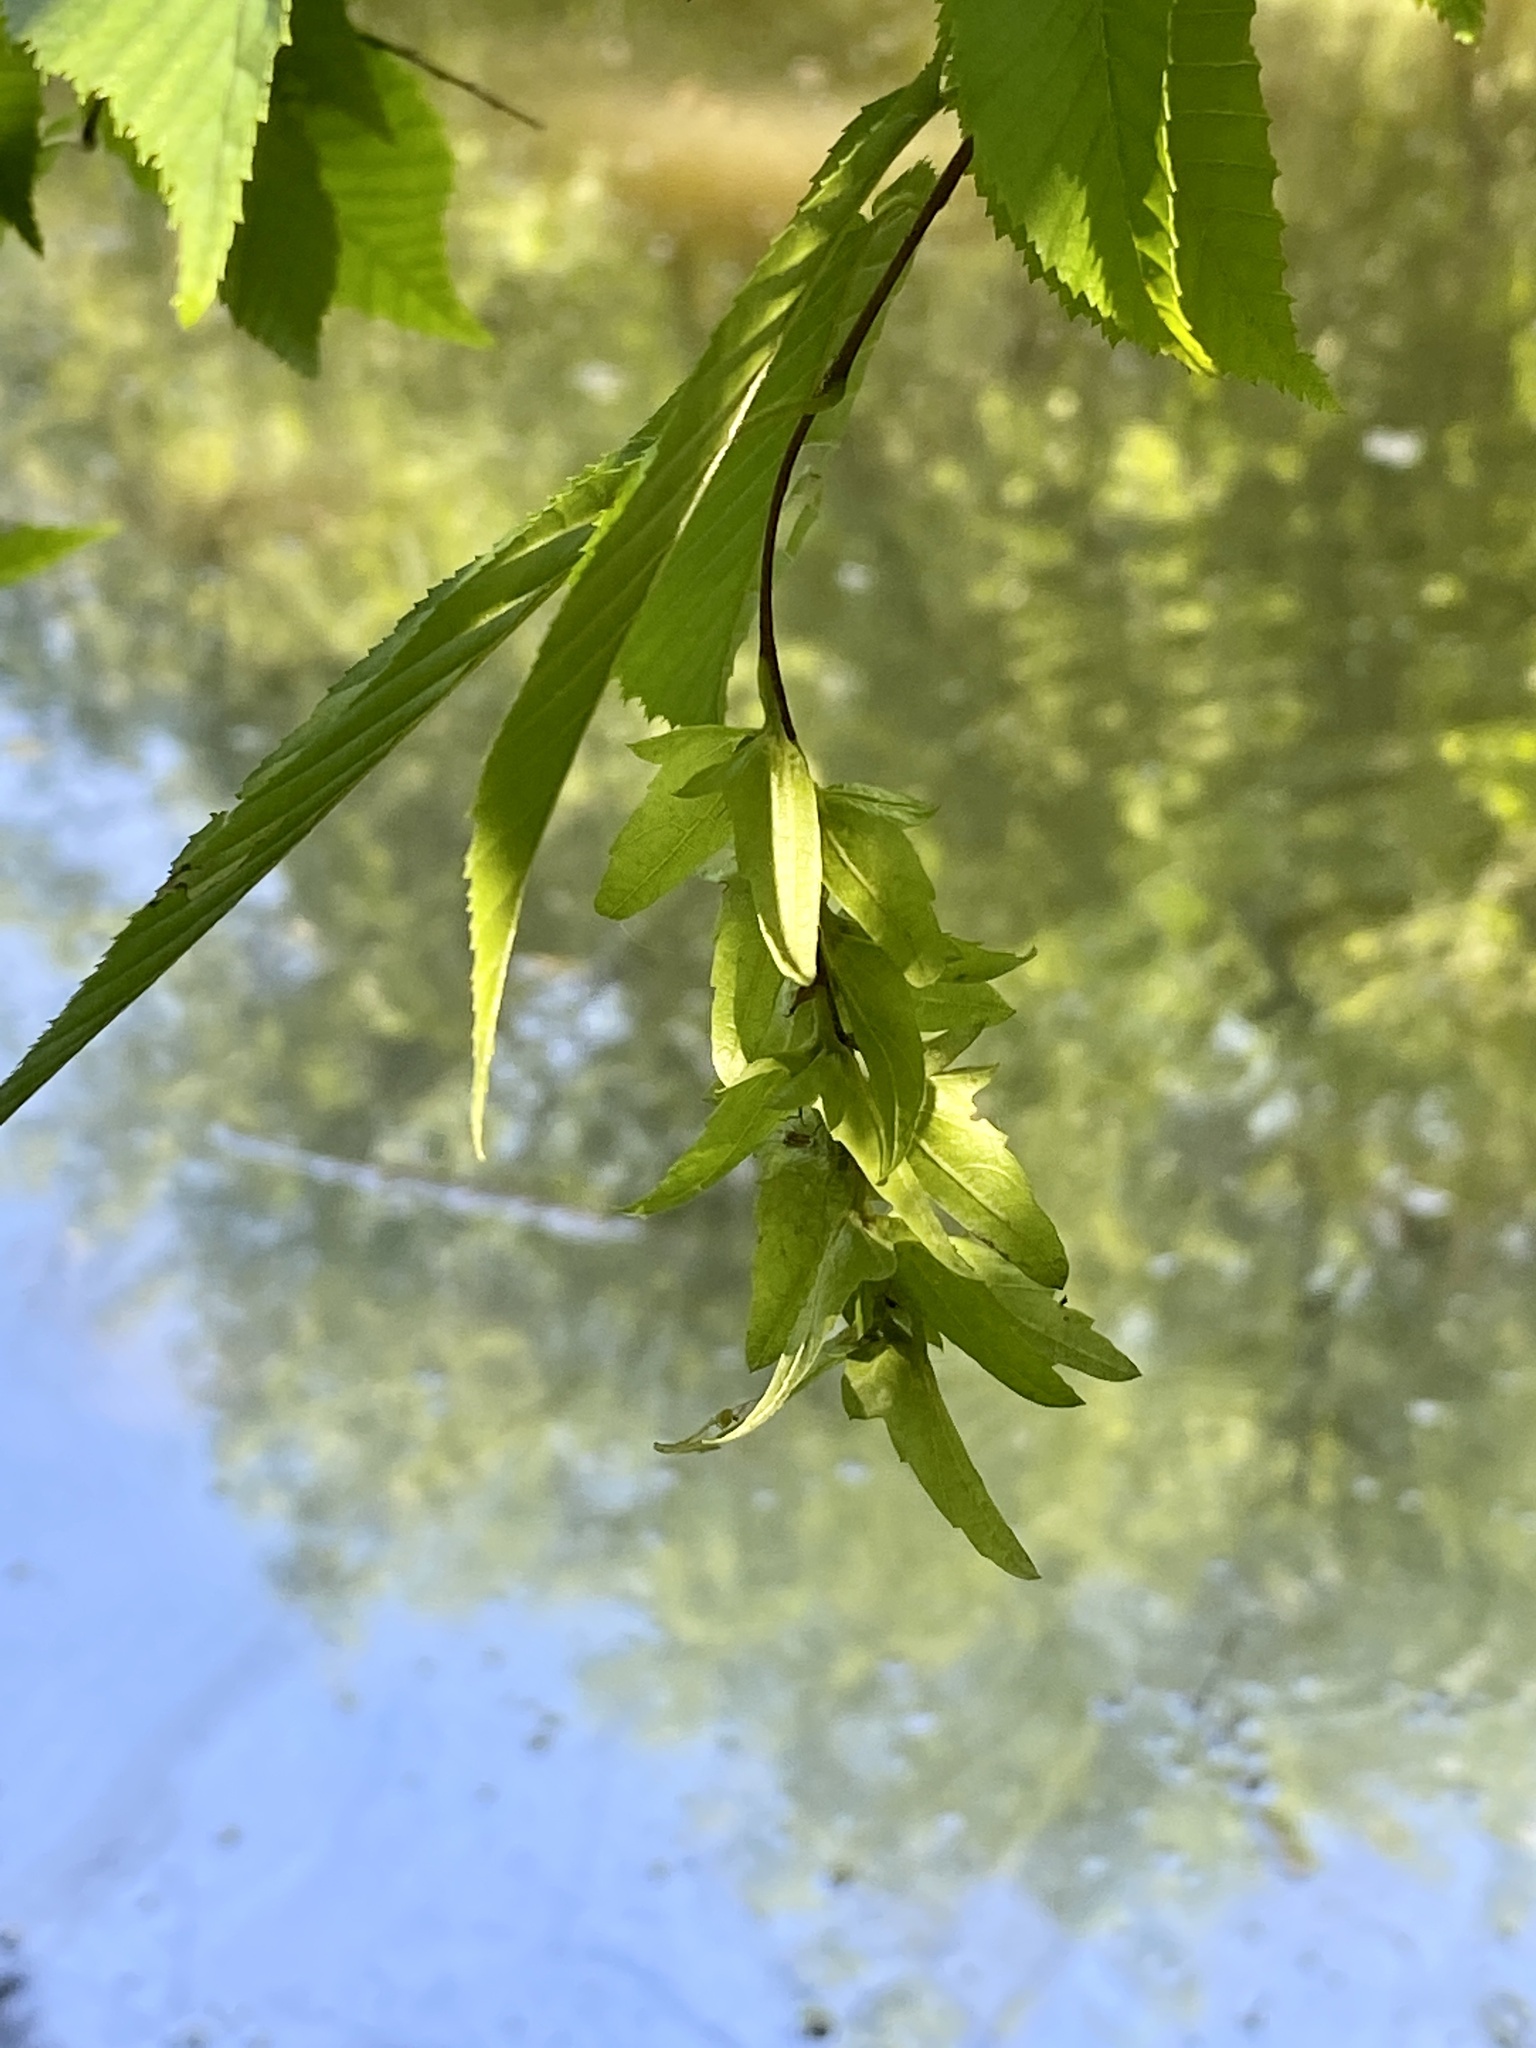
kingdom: Plantae
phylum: Tracheophyta
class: Magnoliopsida
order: Fagales
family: Betulaceae
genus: Carpinus
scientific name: Carpinus caroliniana
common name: American hornbeam
